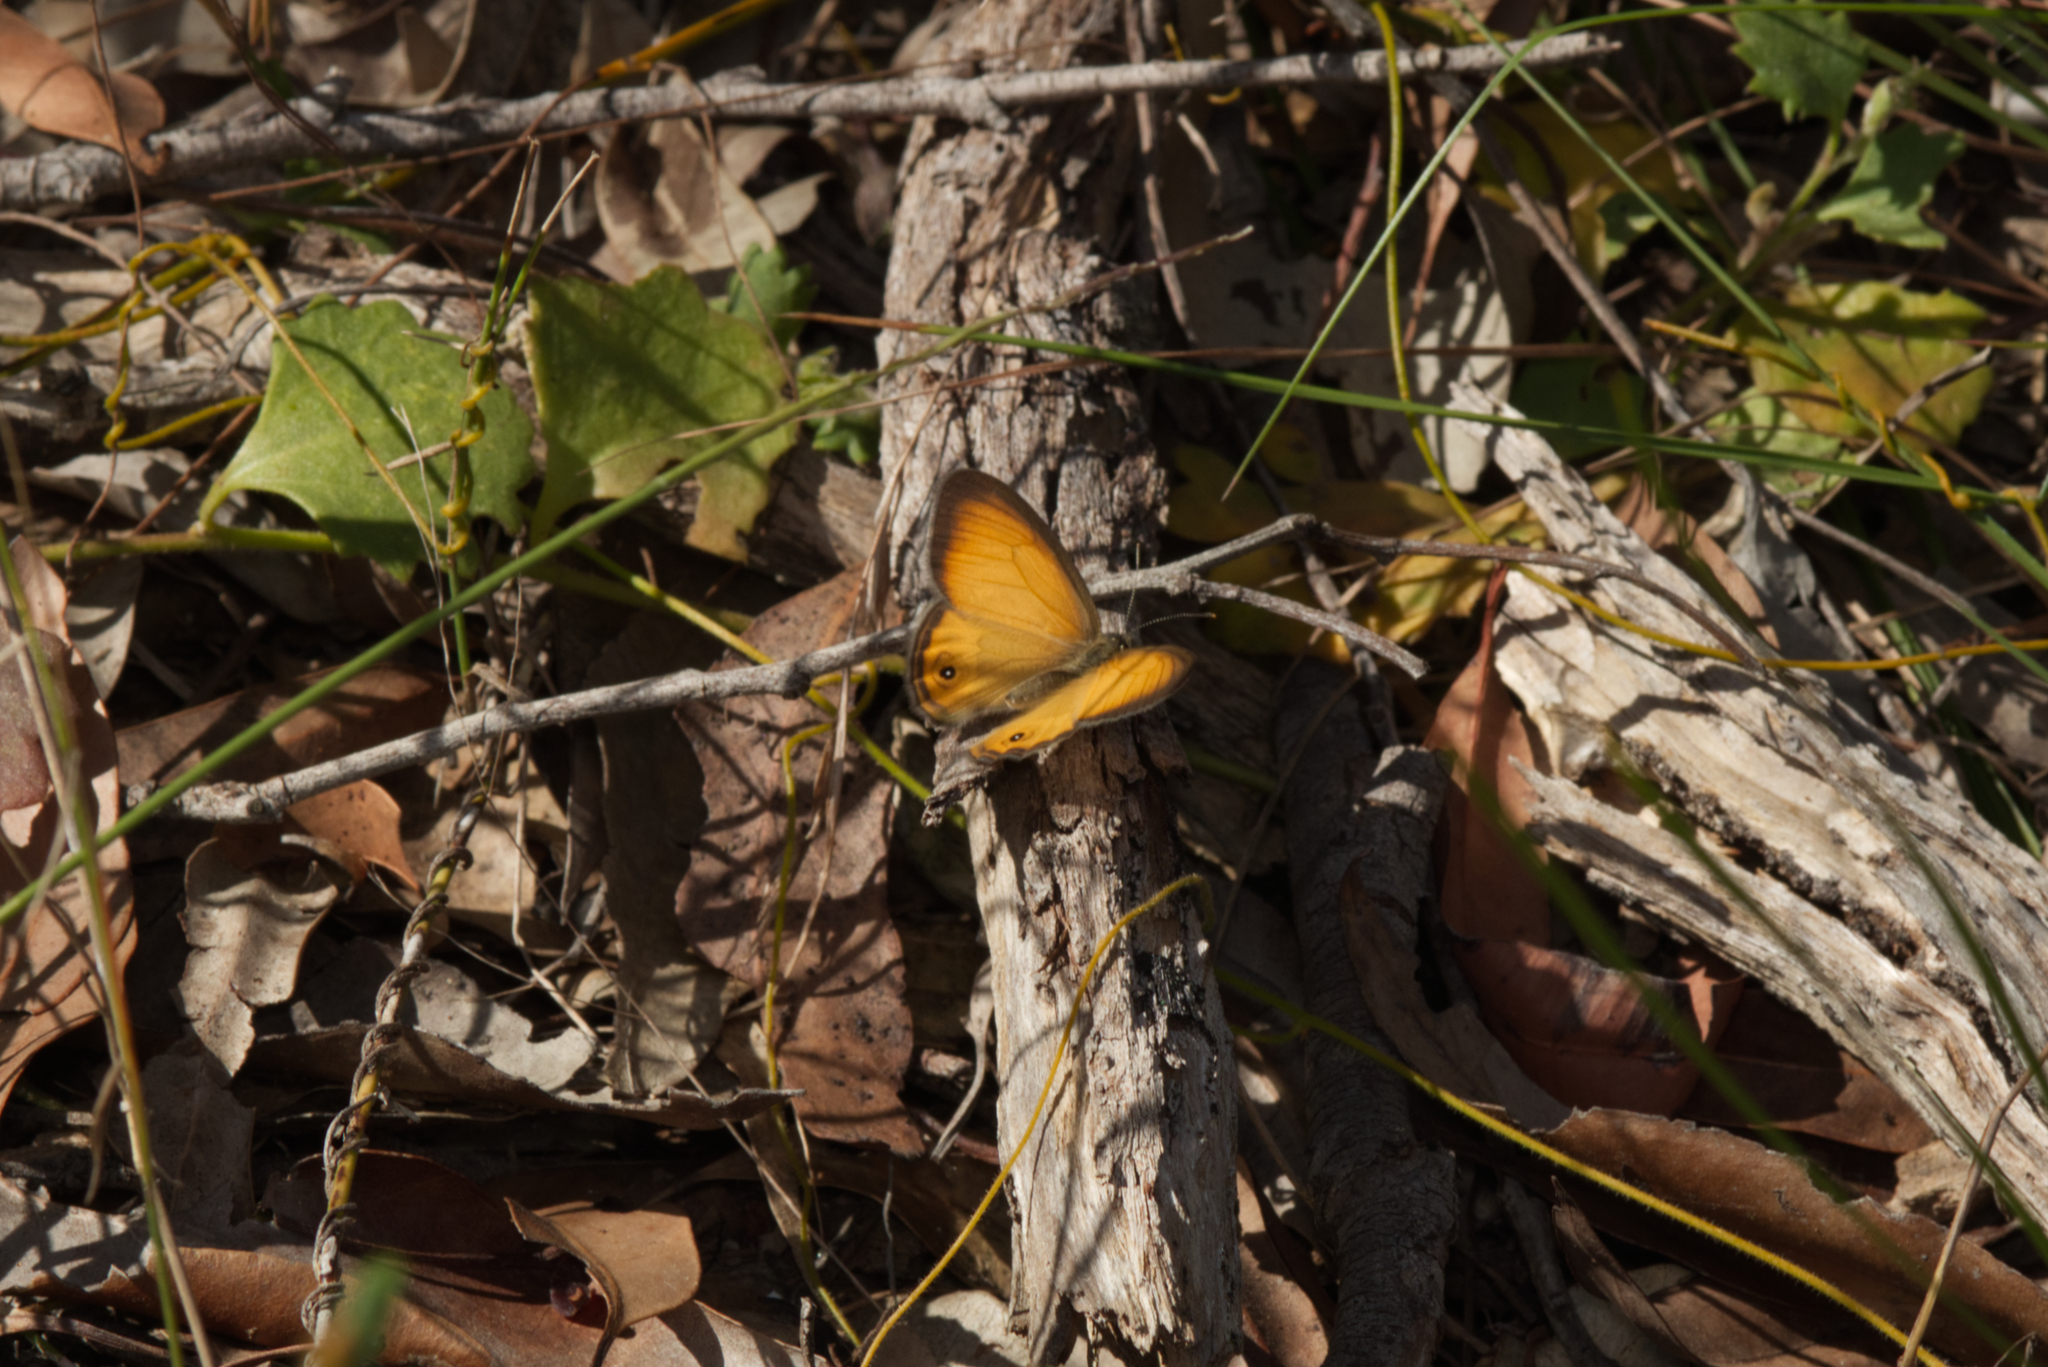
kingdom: Animalia
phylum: Arthropoda
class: Insecta
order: Lepidoptera
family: Nymphalidae
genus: Hypocysta
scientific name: Hypocysta adiante
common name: Orange ringlet
